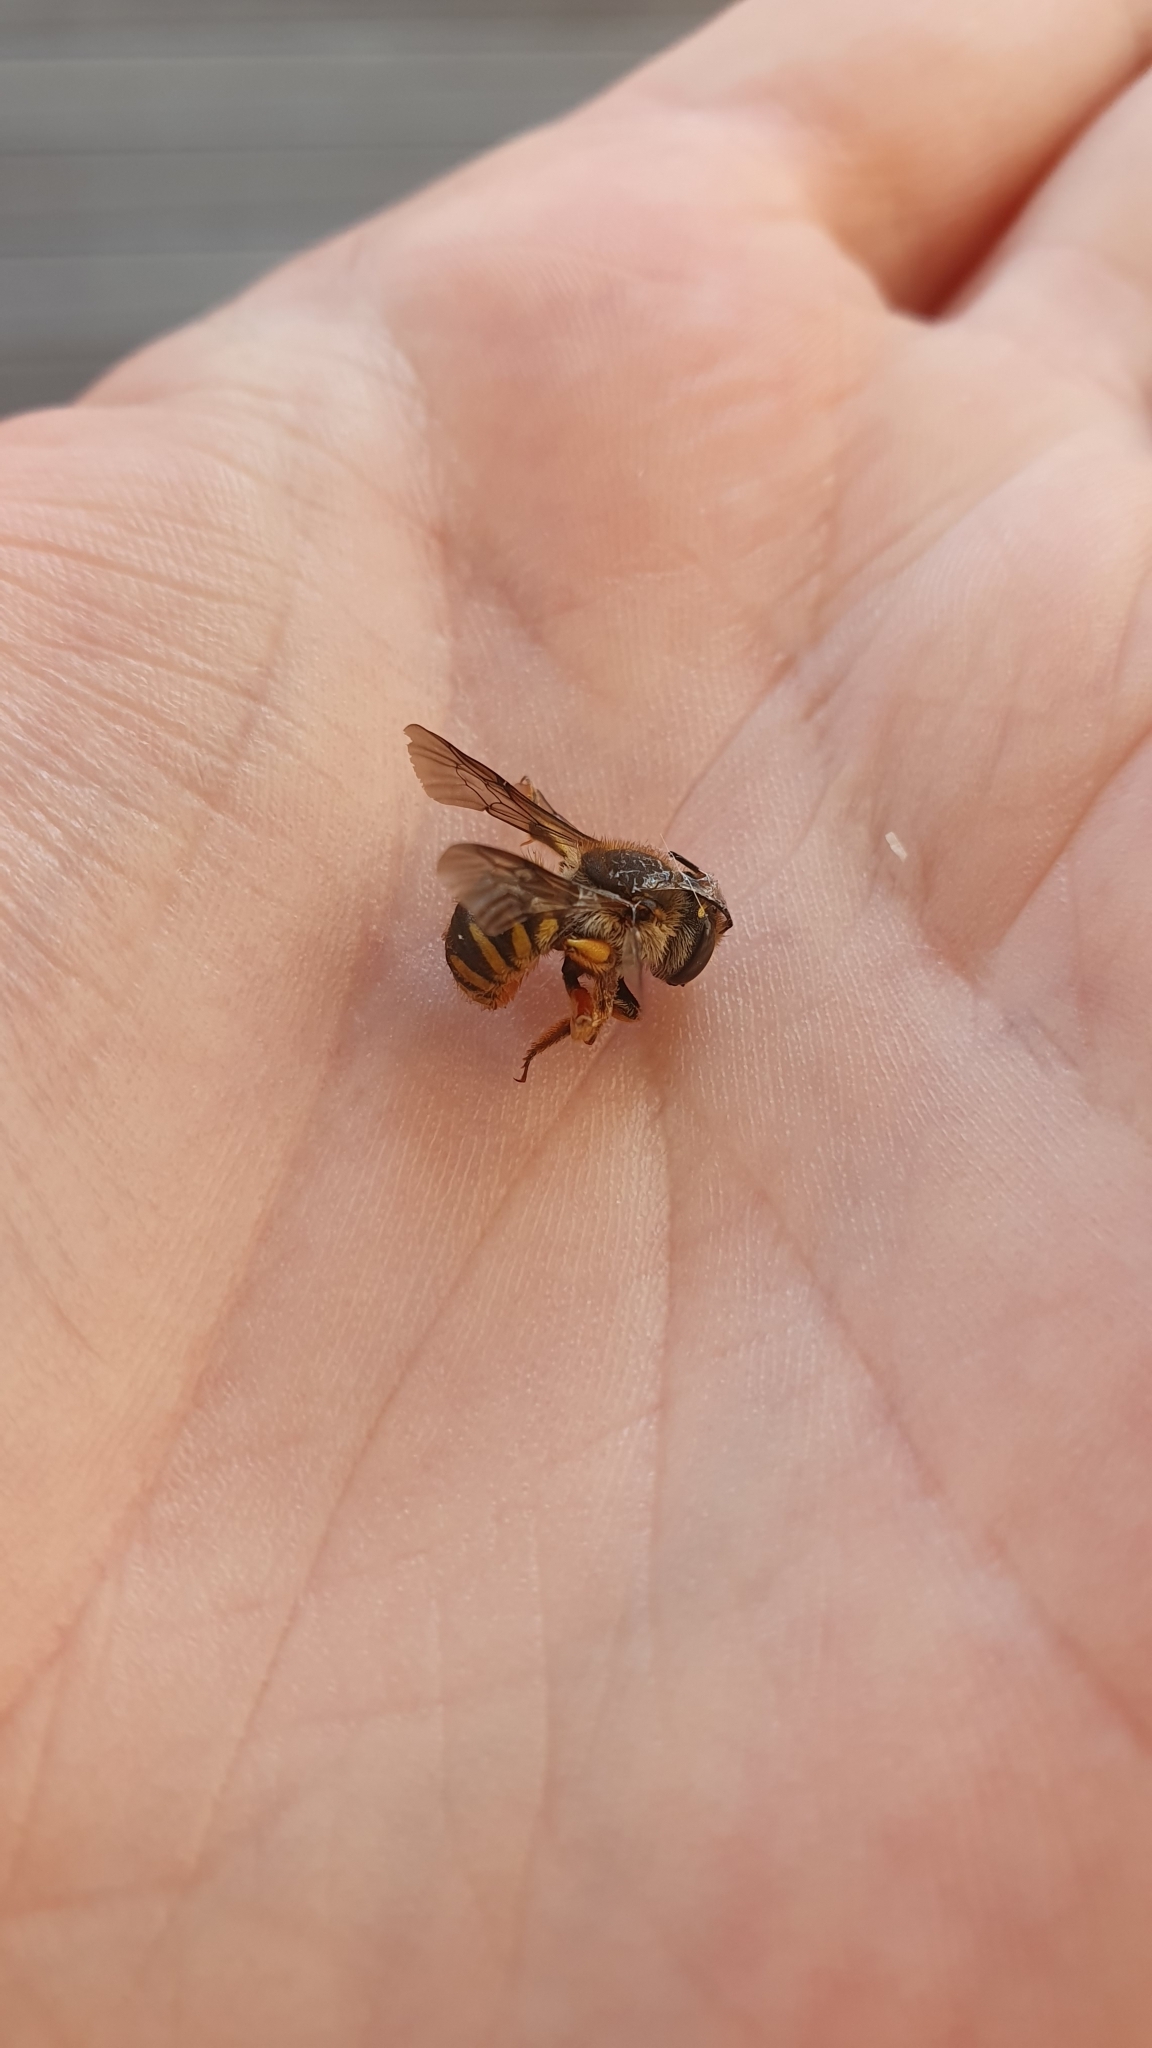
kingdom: Animalia
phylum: Arthropoda
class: Insecta
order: Hymenoptera
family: Megachilidae
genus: Anthidium
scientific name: Anthidium manicatum
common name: Wool carder bee
